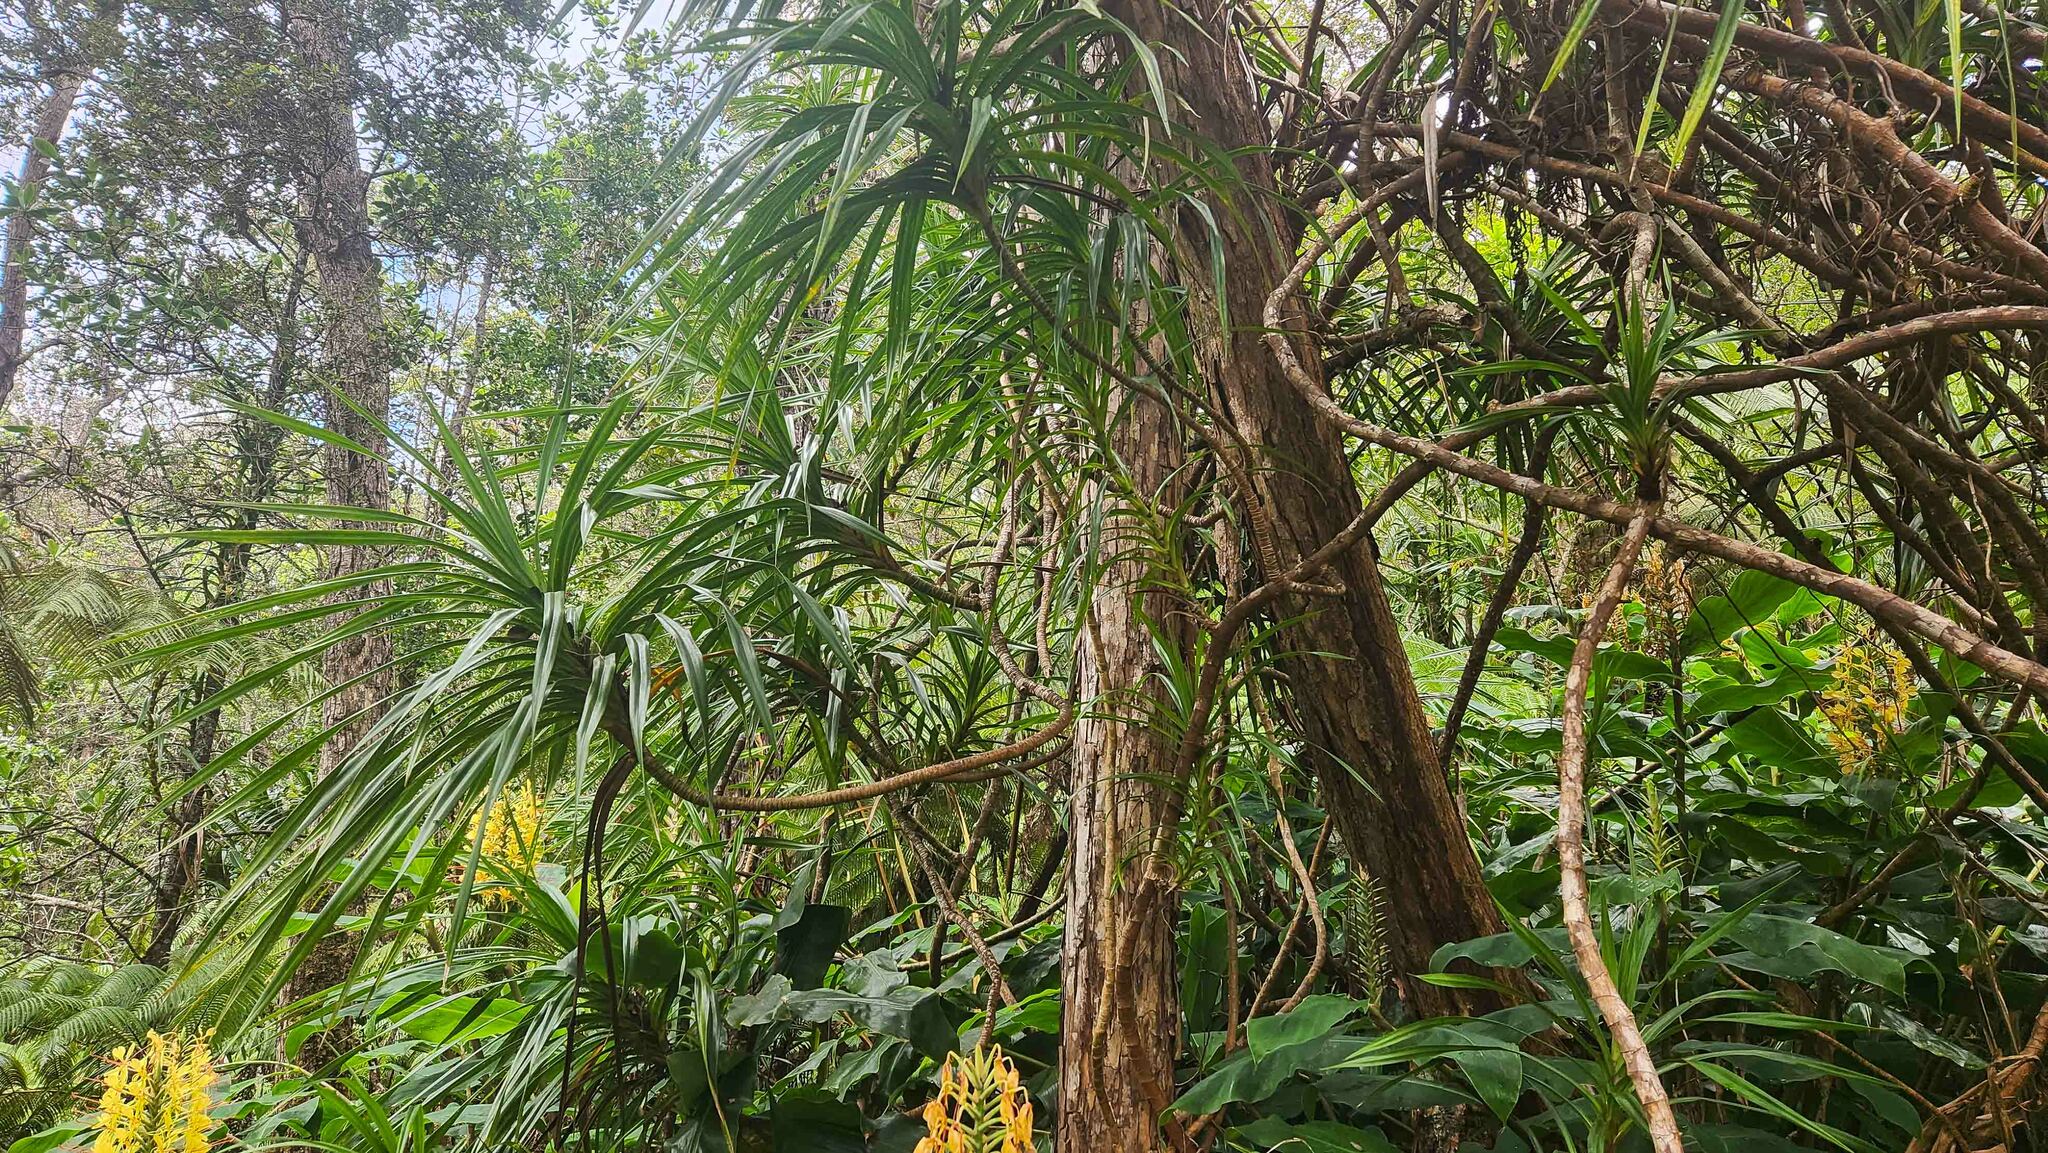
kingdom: Plantae
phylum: Tracheophyta
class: Liliopsida
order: Pandanales
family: Pandanaceae
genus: Freycinetia
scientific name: Freycinetia arborea
